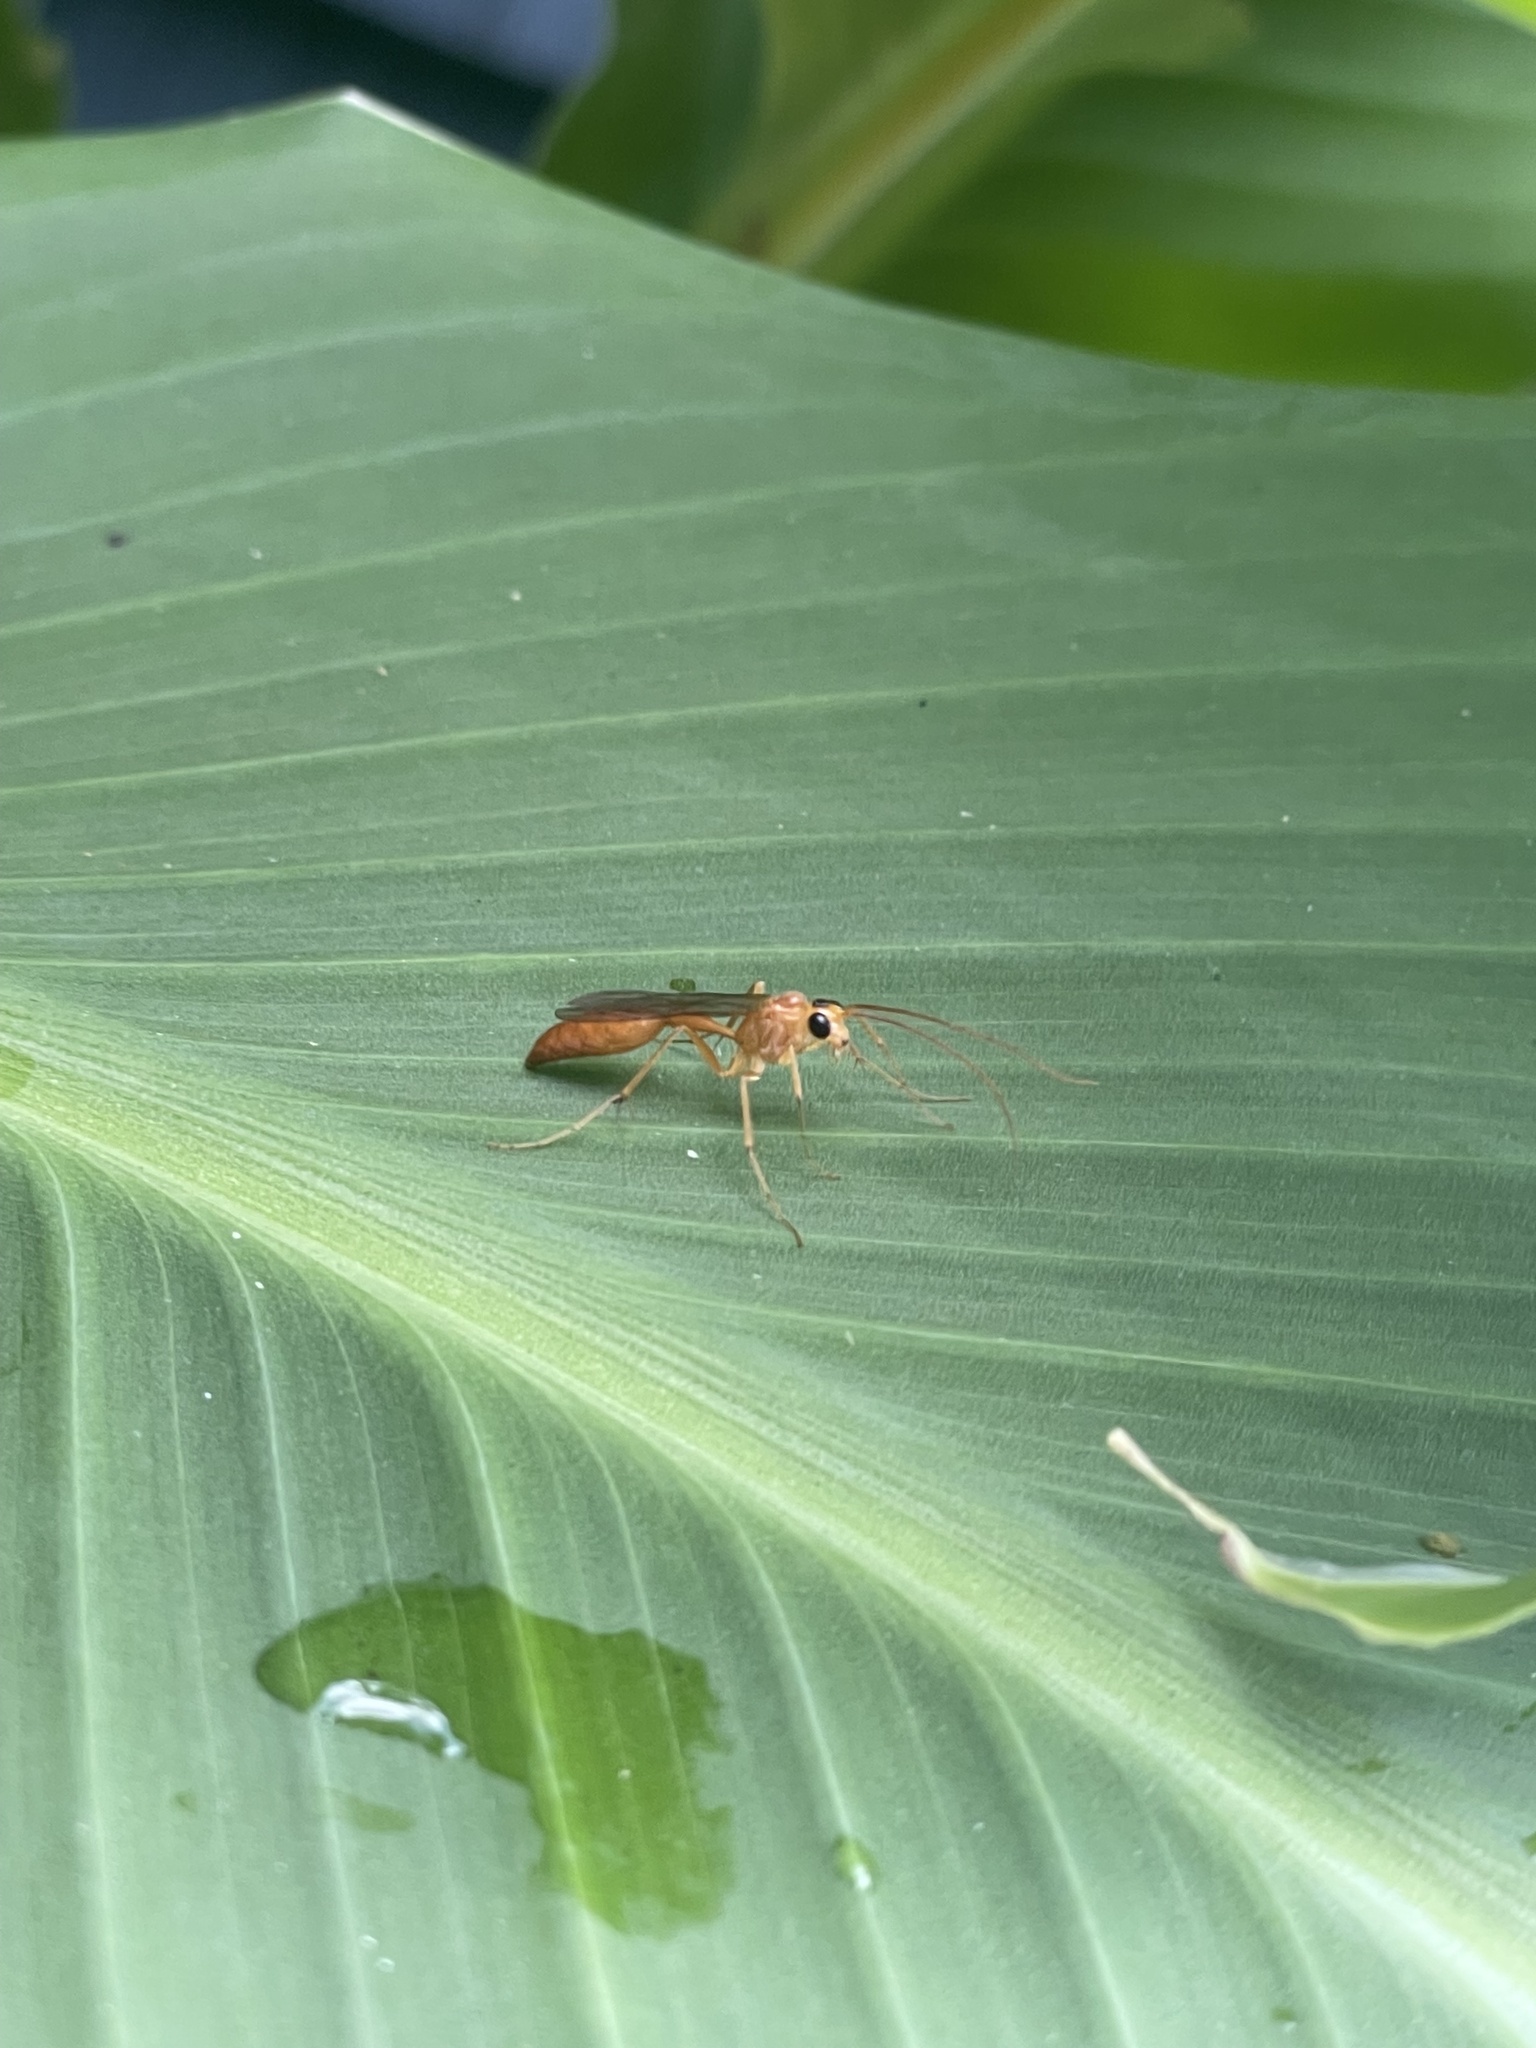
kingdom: Animalia
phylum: Arthropoda
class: Insecta
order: Hymenoptera
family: Rhopalosomatidae
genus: Rhopalosoma
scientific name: Rhopalosoma nearcticum
